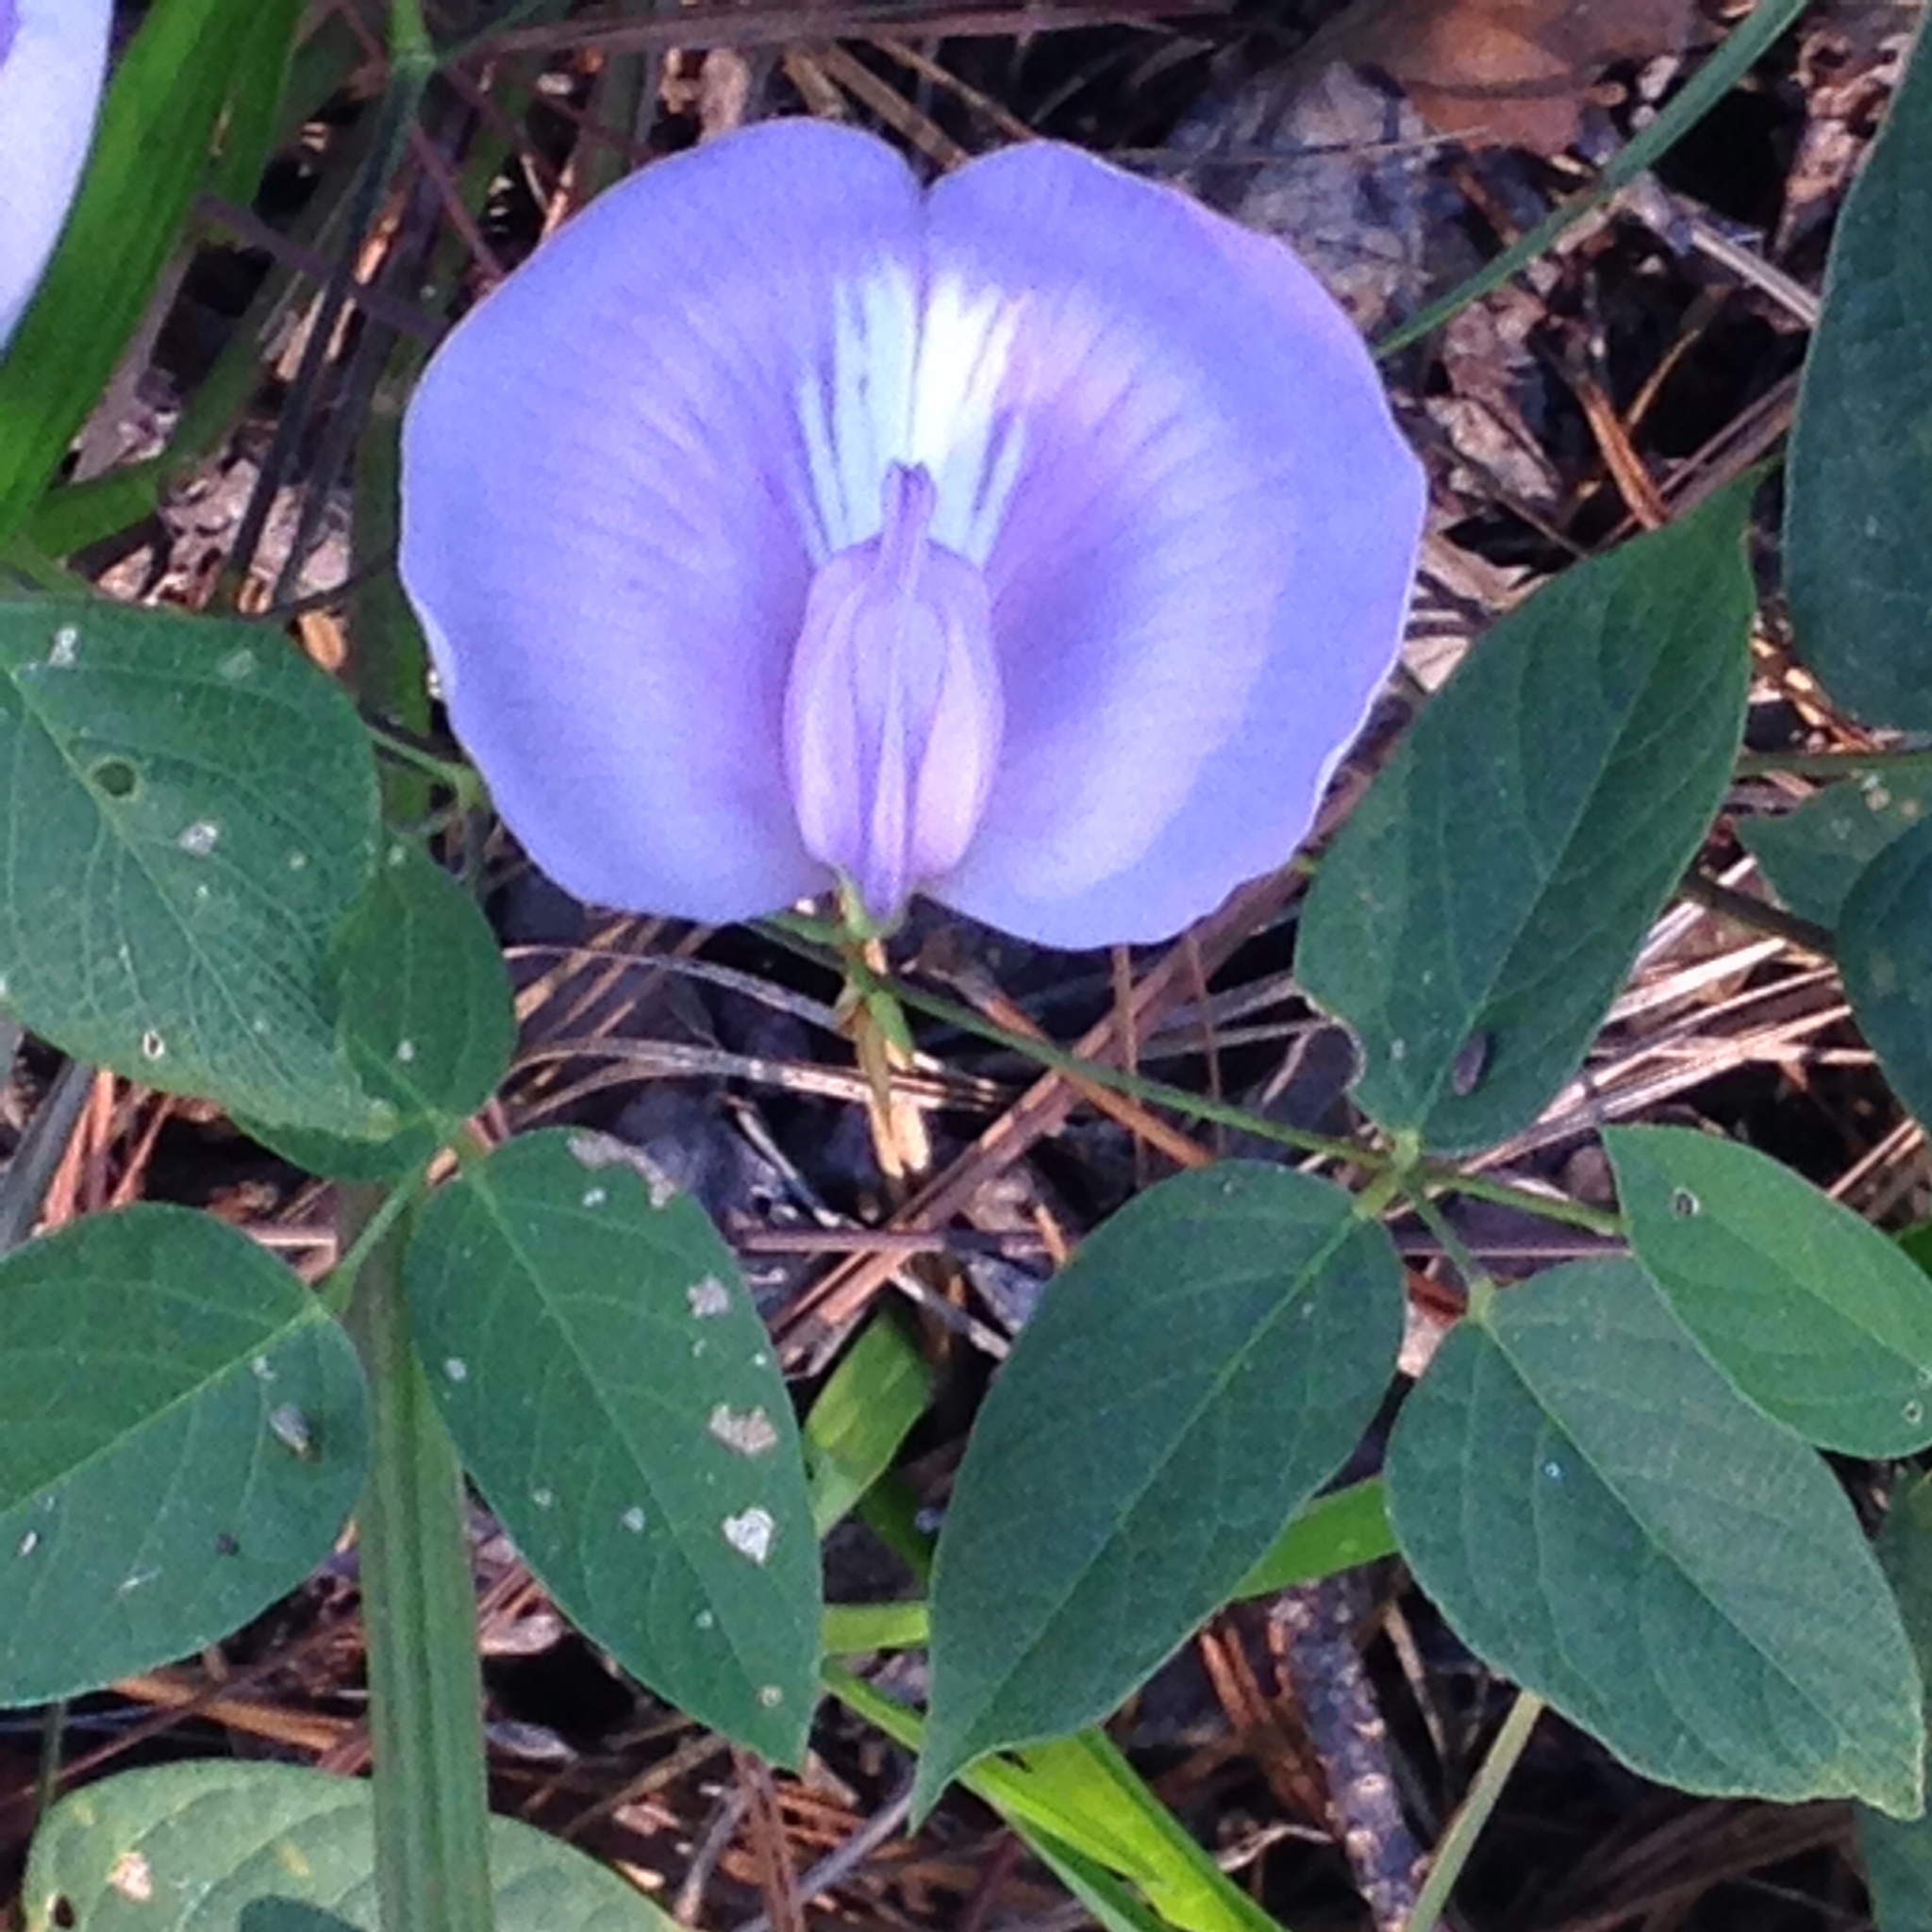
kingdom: Plantae
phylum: Tracheophyta
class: Magnoliopsida
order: Fabales
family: Fabaceae
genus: Centrosema
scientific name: Centrosema virginianum
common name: Butterfly-pea
